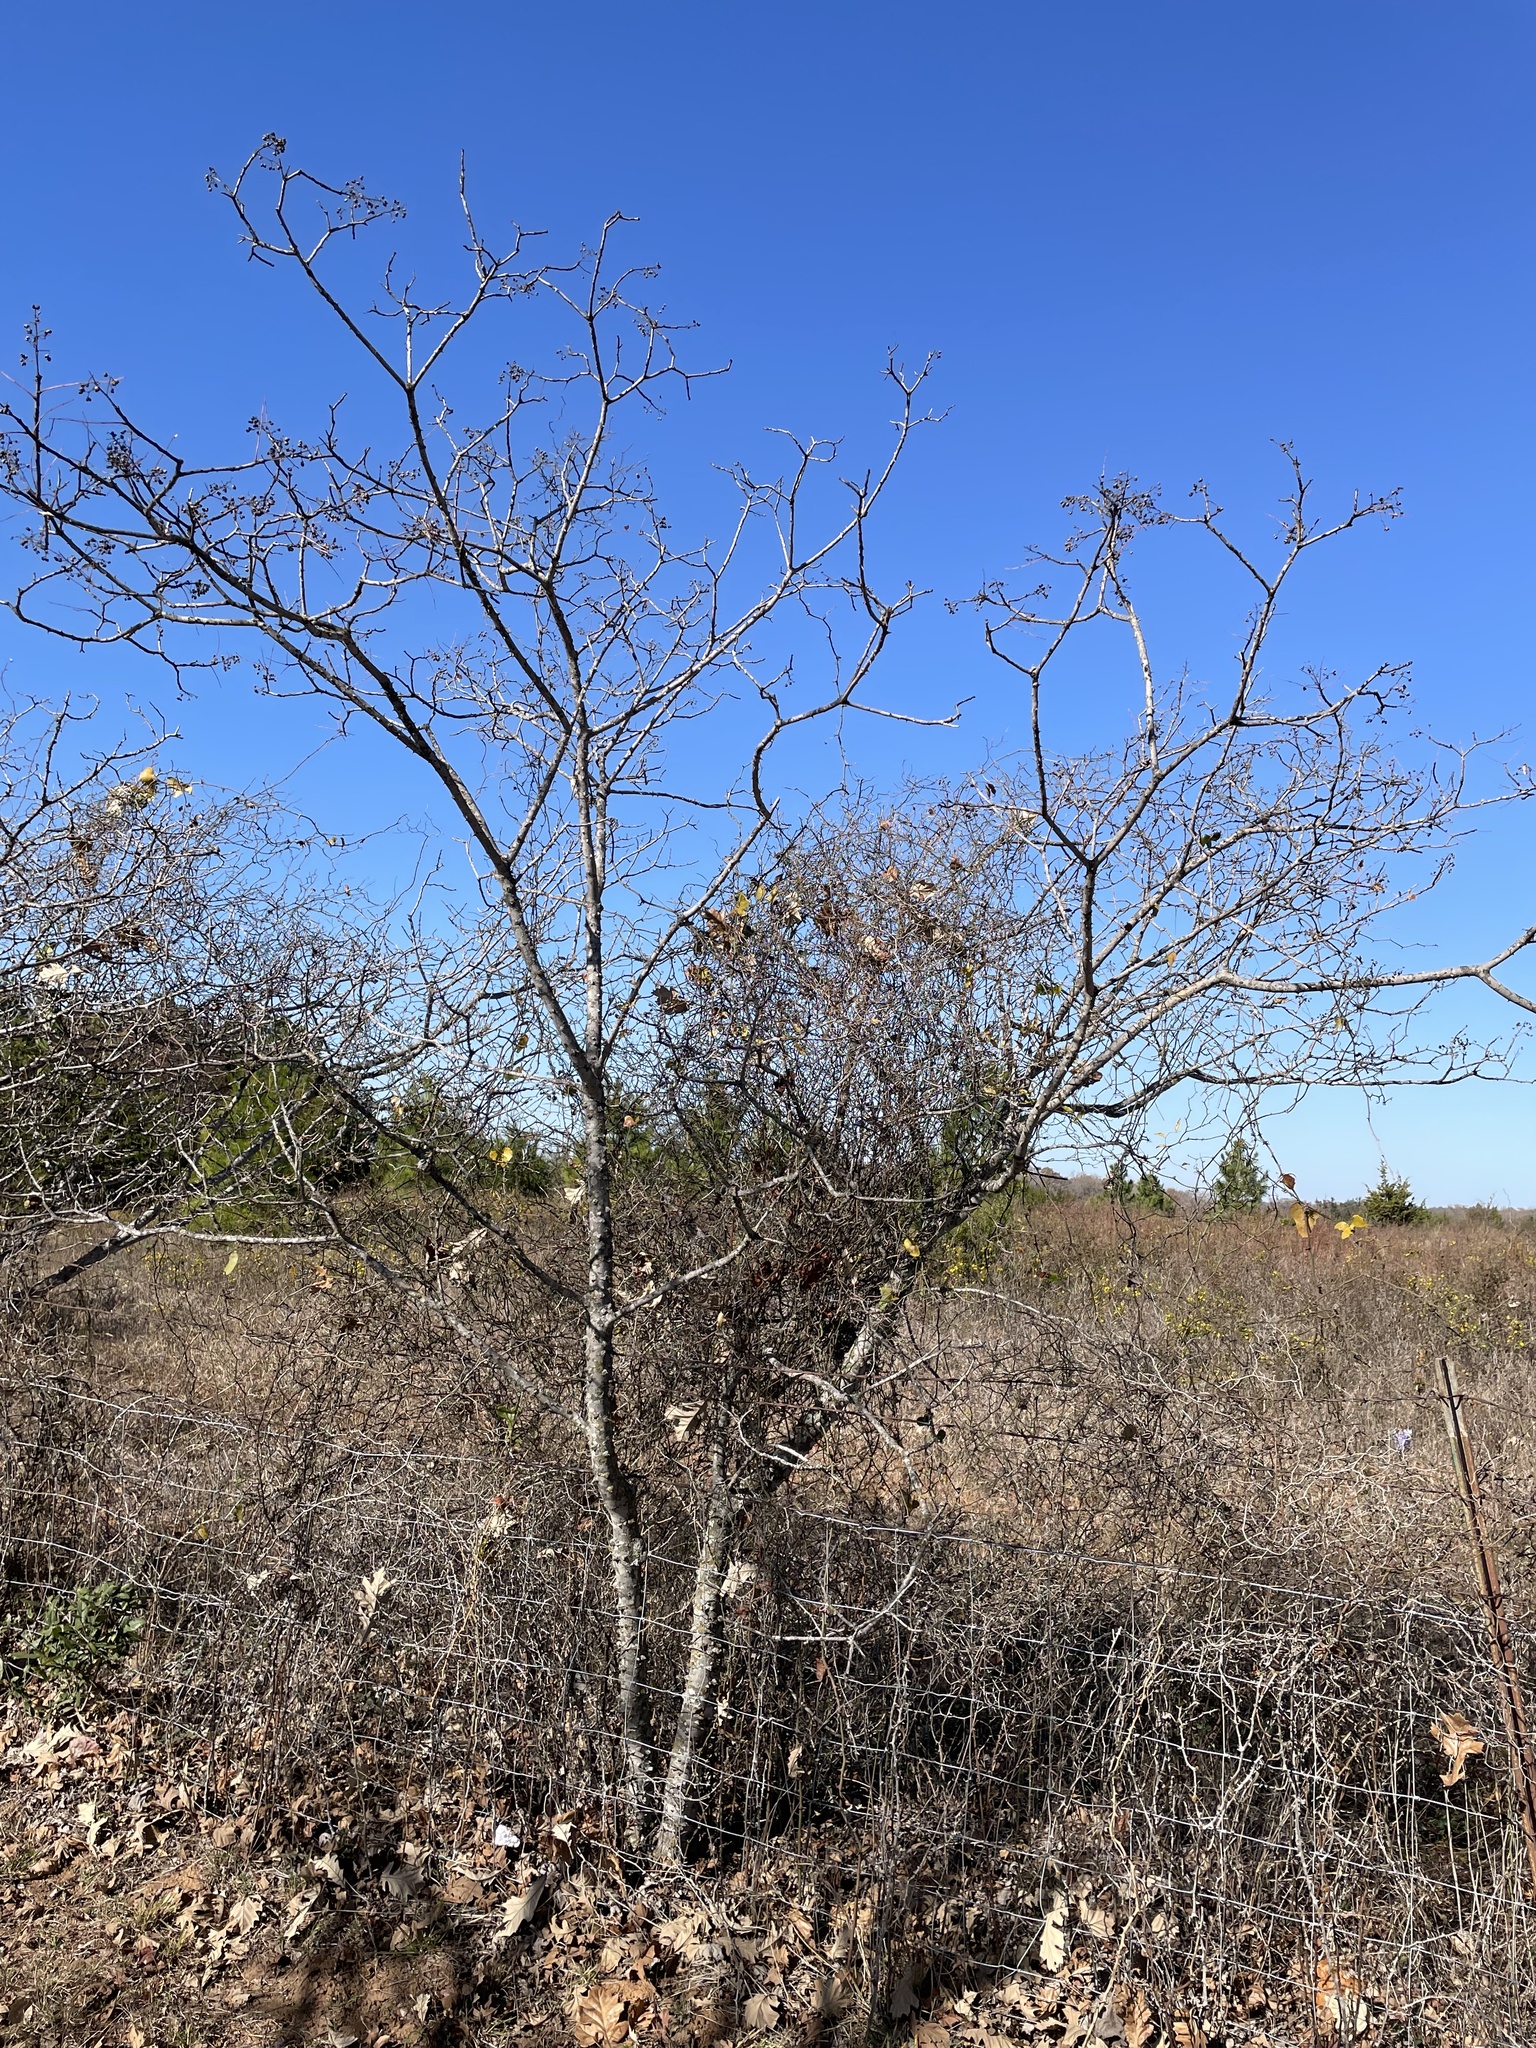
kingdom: Plantae
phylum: Tracheophyta
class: Magnoliopsida
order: Sapindales
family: Rutaceae
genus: Zanthoxylum
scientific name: Zanthoxylum clava-herculis
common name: Hercules'-club
